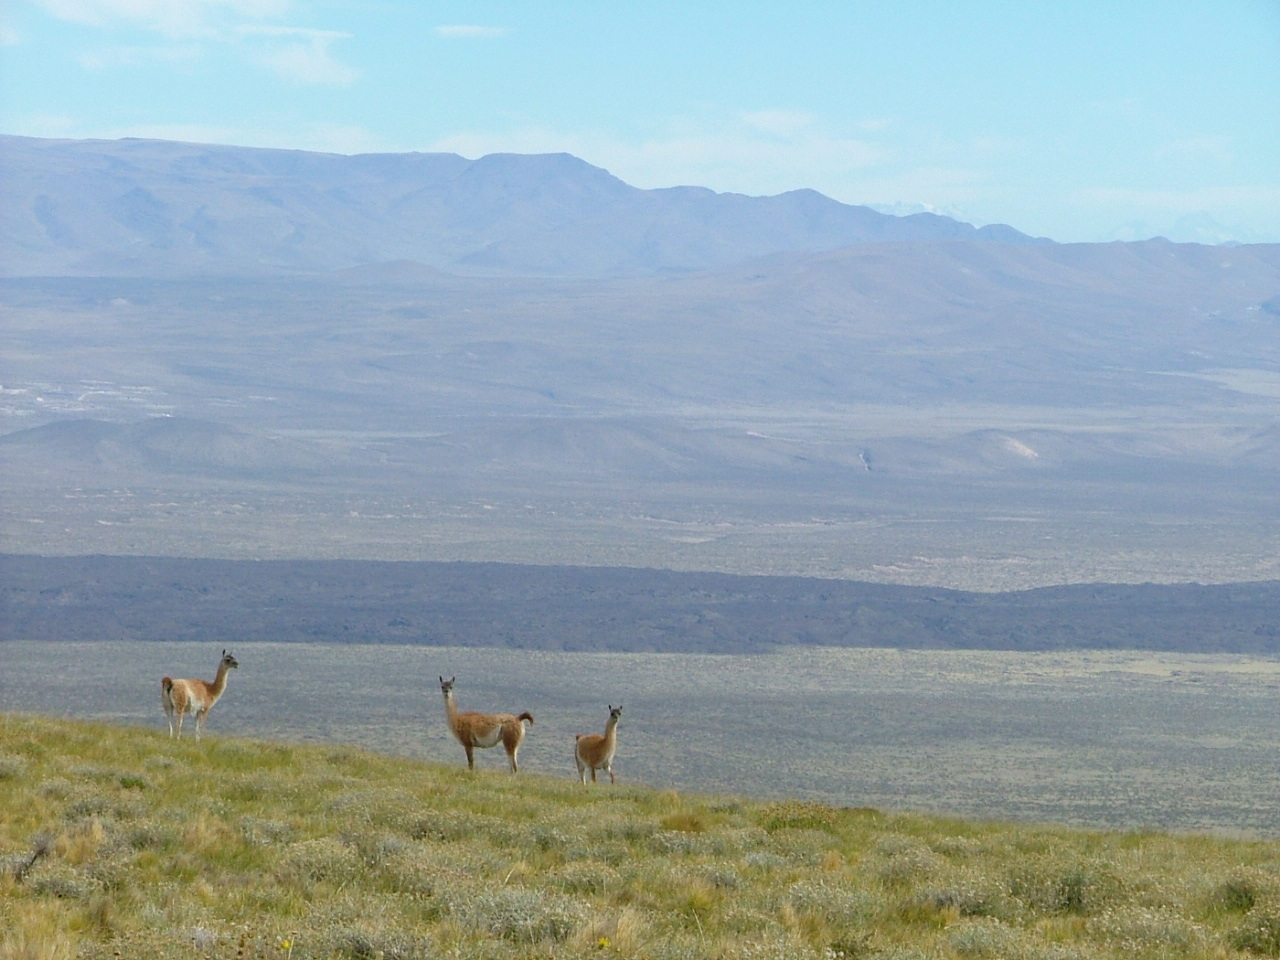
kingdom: Animalia
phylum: Chordata
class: Mammalia
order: Artiodactyla
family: Camelidae
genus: Lama
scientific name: Lama glama
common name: Llama
